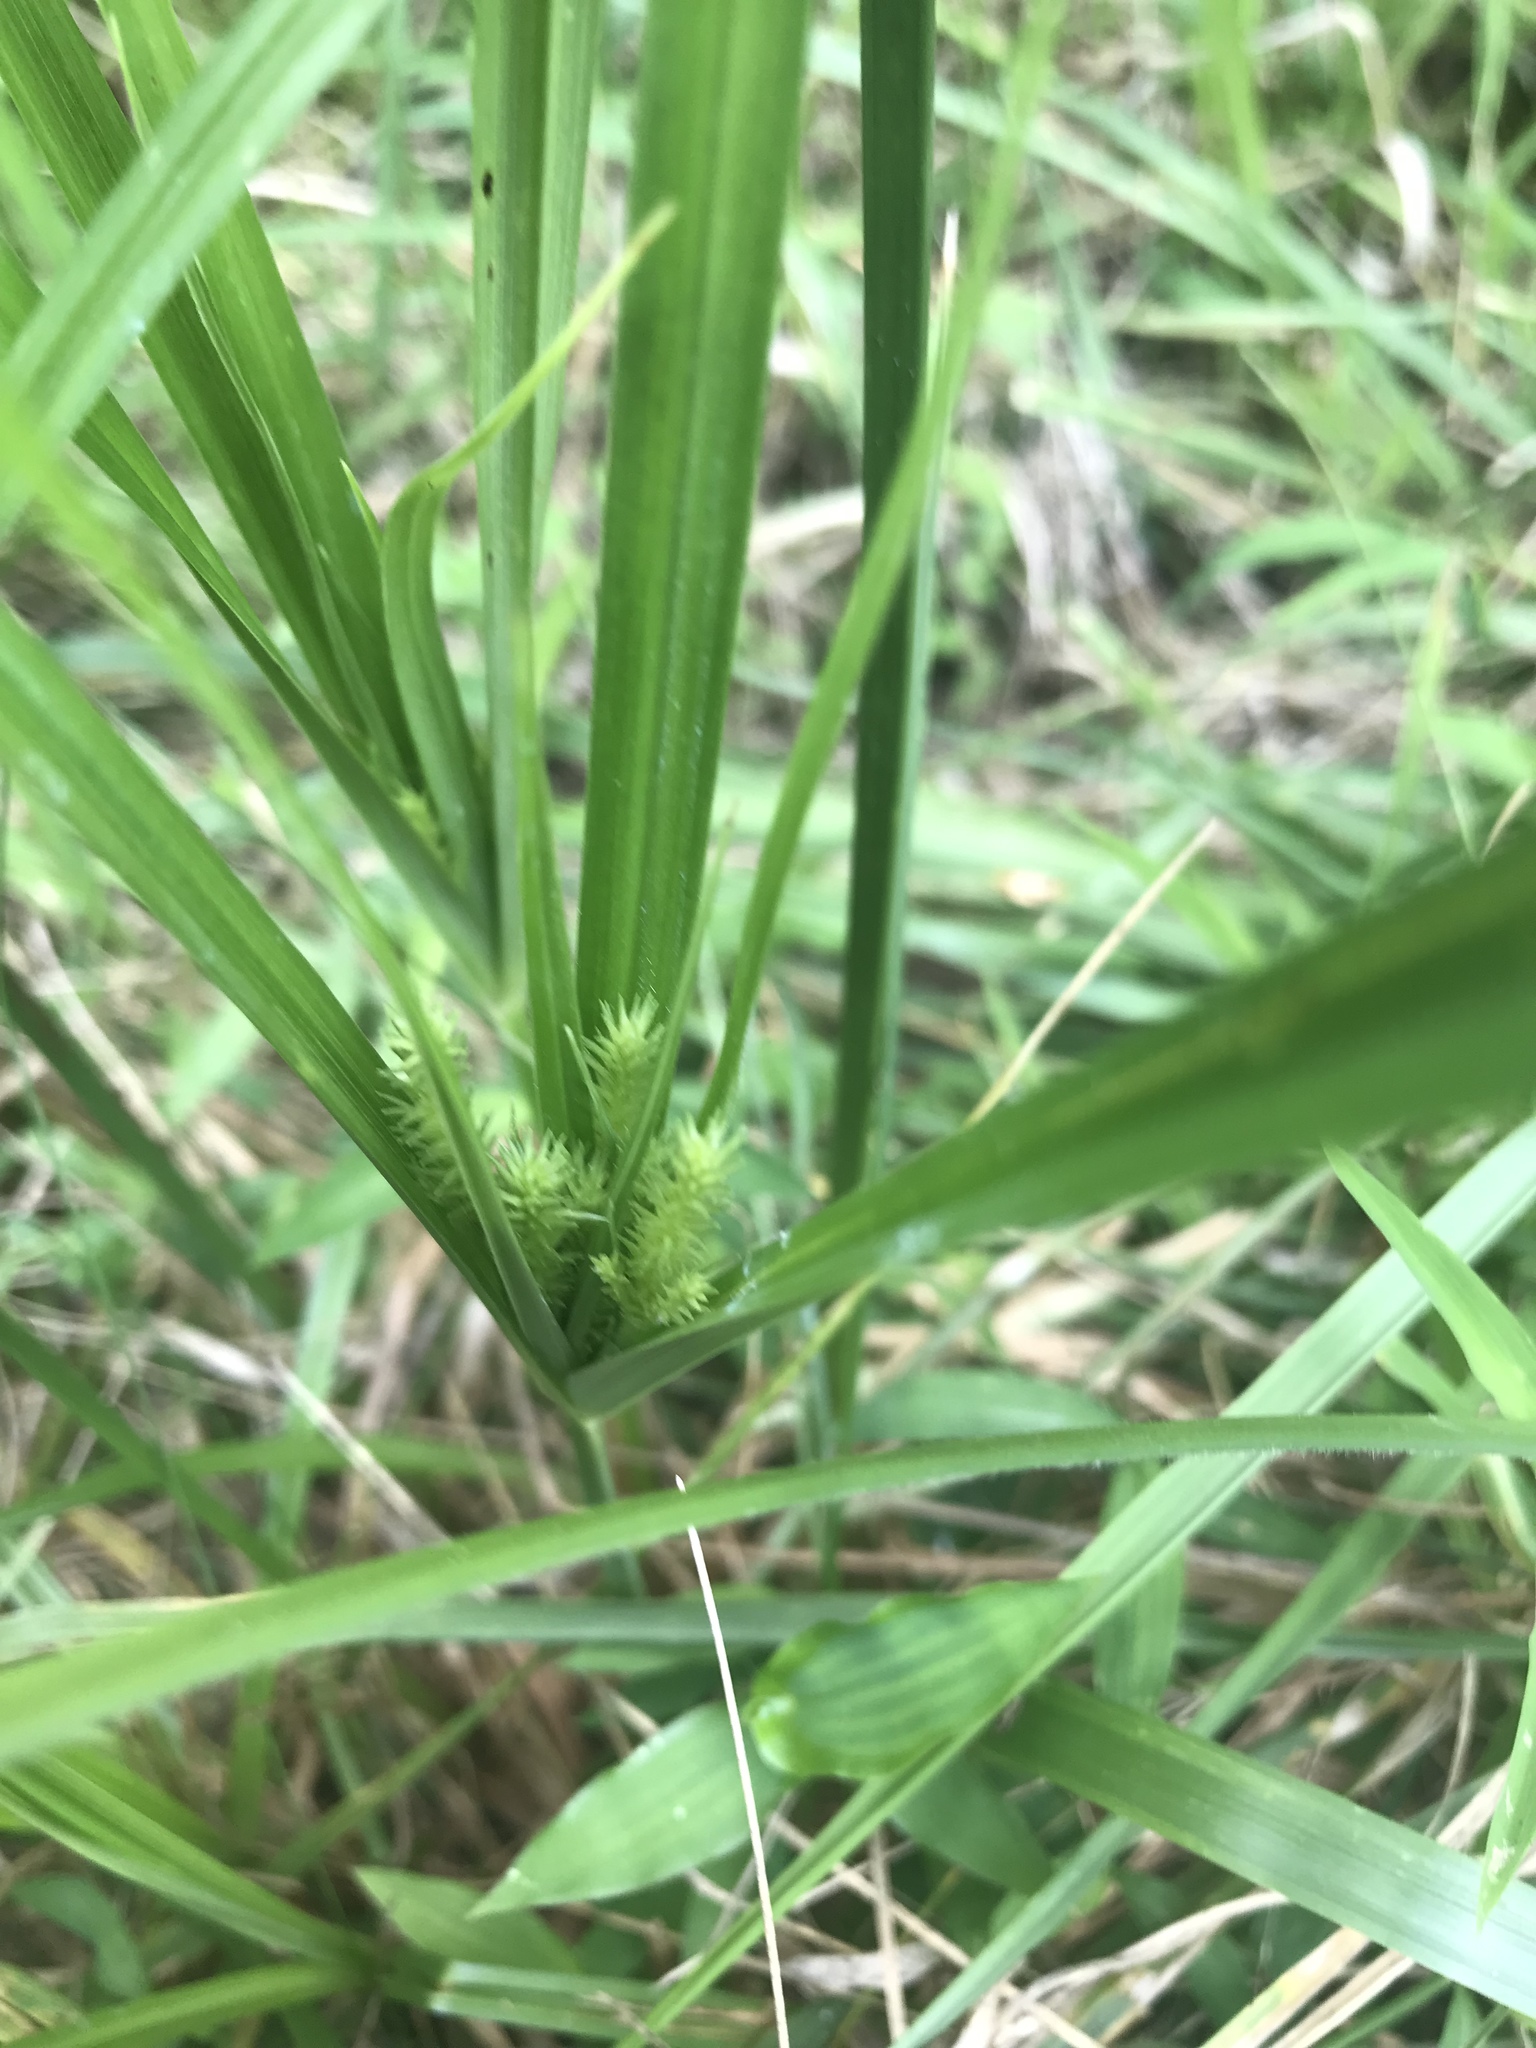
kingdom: Plantae
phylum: Tracheophyta
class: Liliopsida
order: Poales
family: Cyperaceae
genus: Cyperus
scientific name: Cyperus strigosus
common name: False nutsedge
